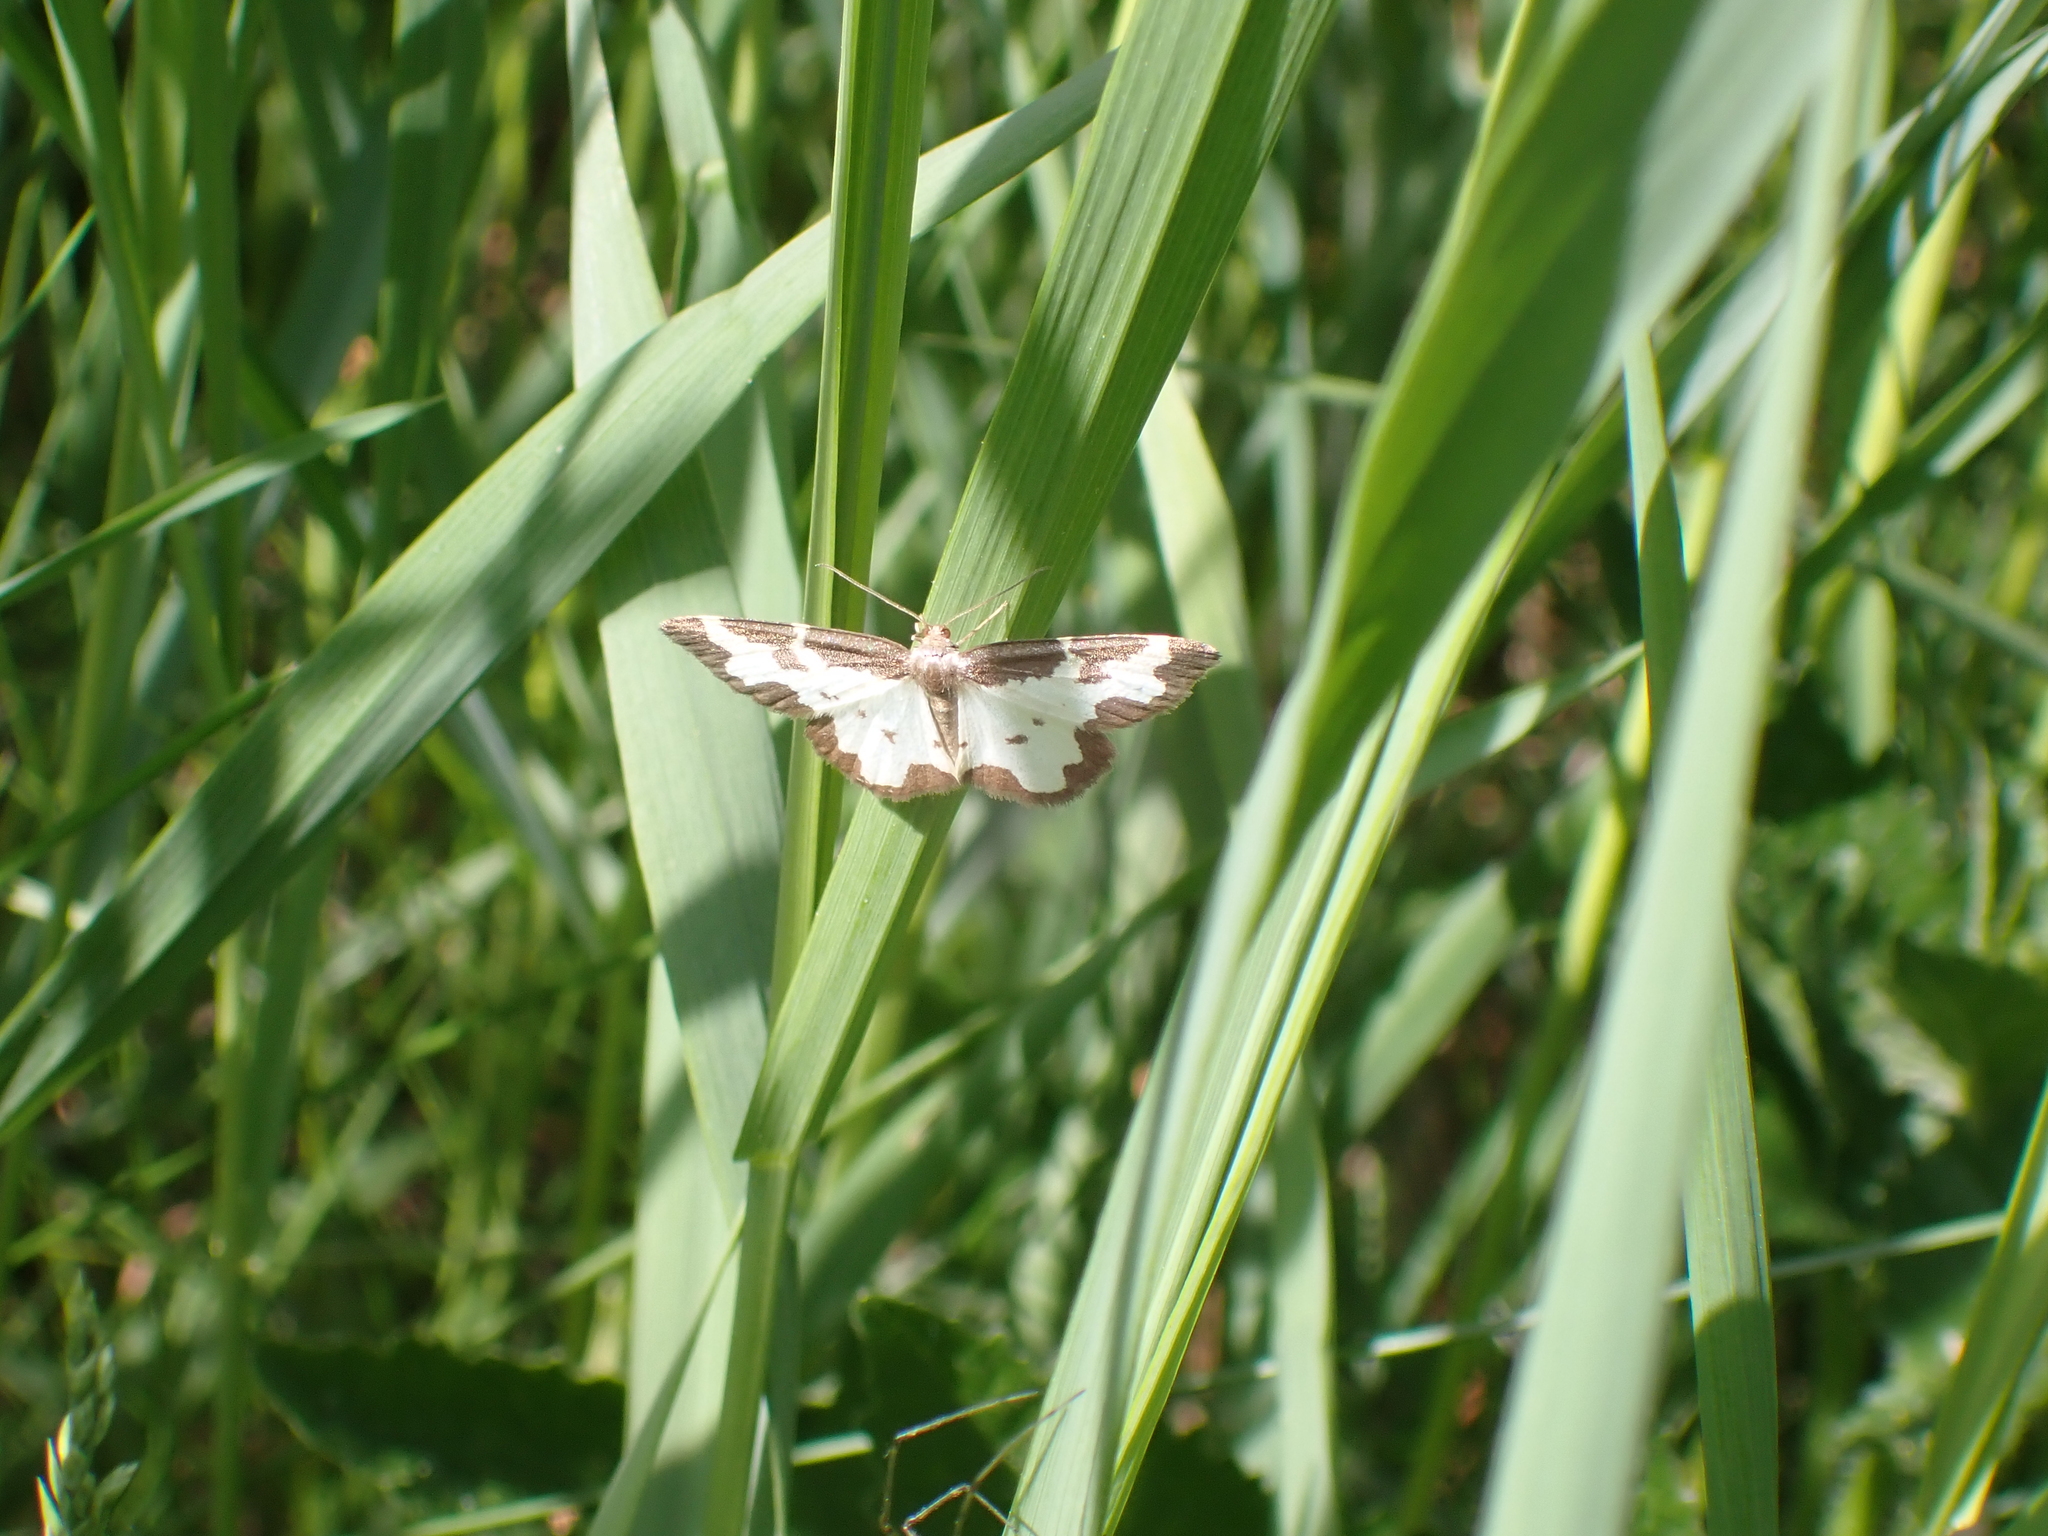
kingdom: Animalia
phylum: Arthropoda
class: Insecta
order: Lepidoptera
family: Geometridae
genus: Lomaspilis
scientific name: Lomaspilis marginata
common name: Clouded border
